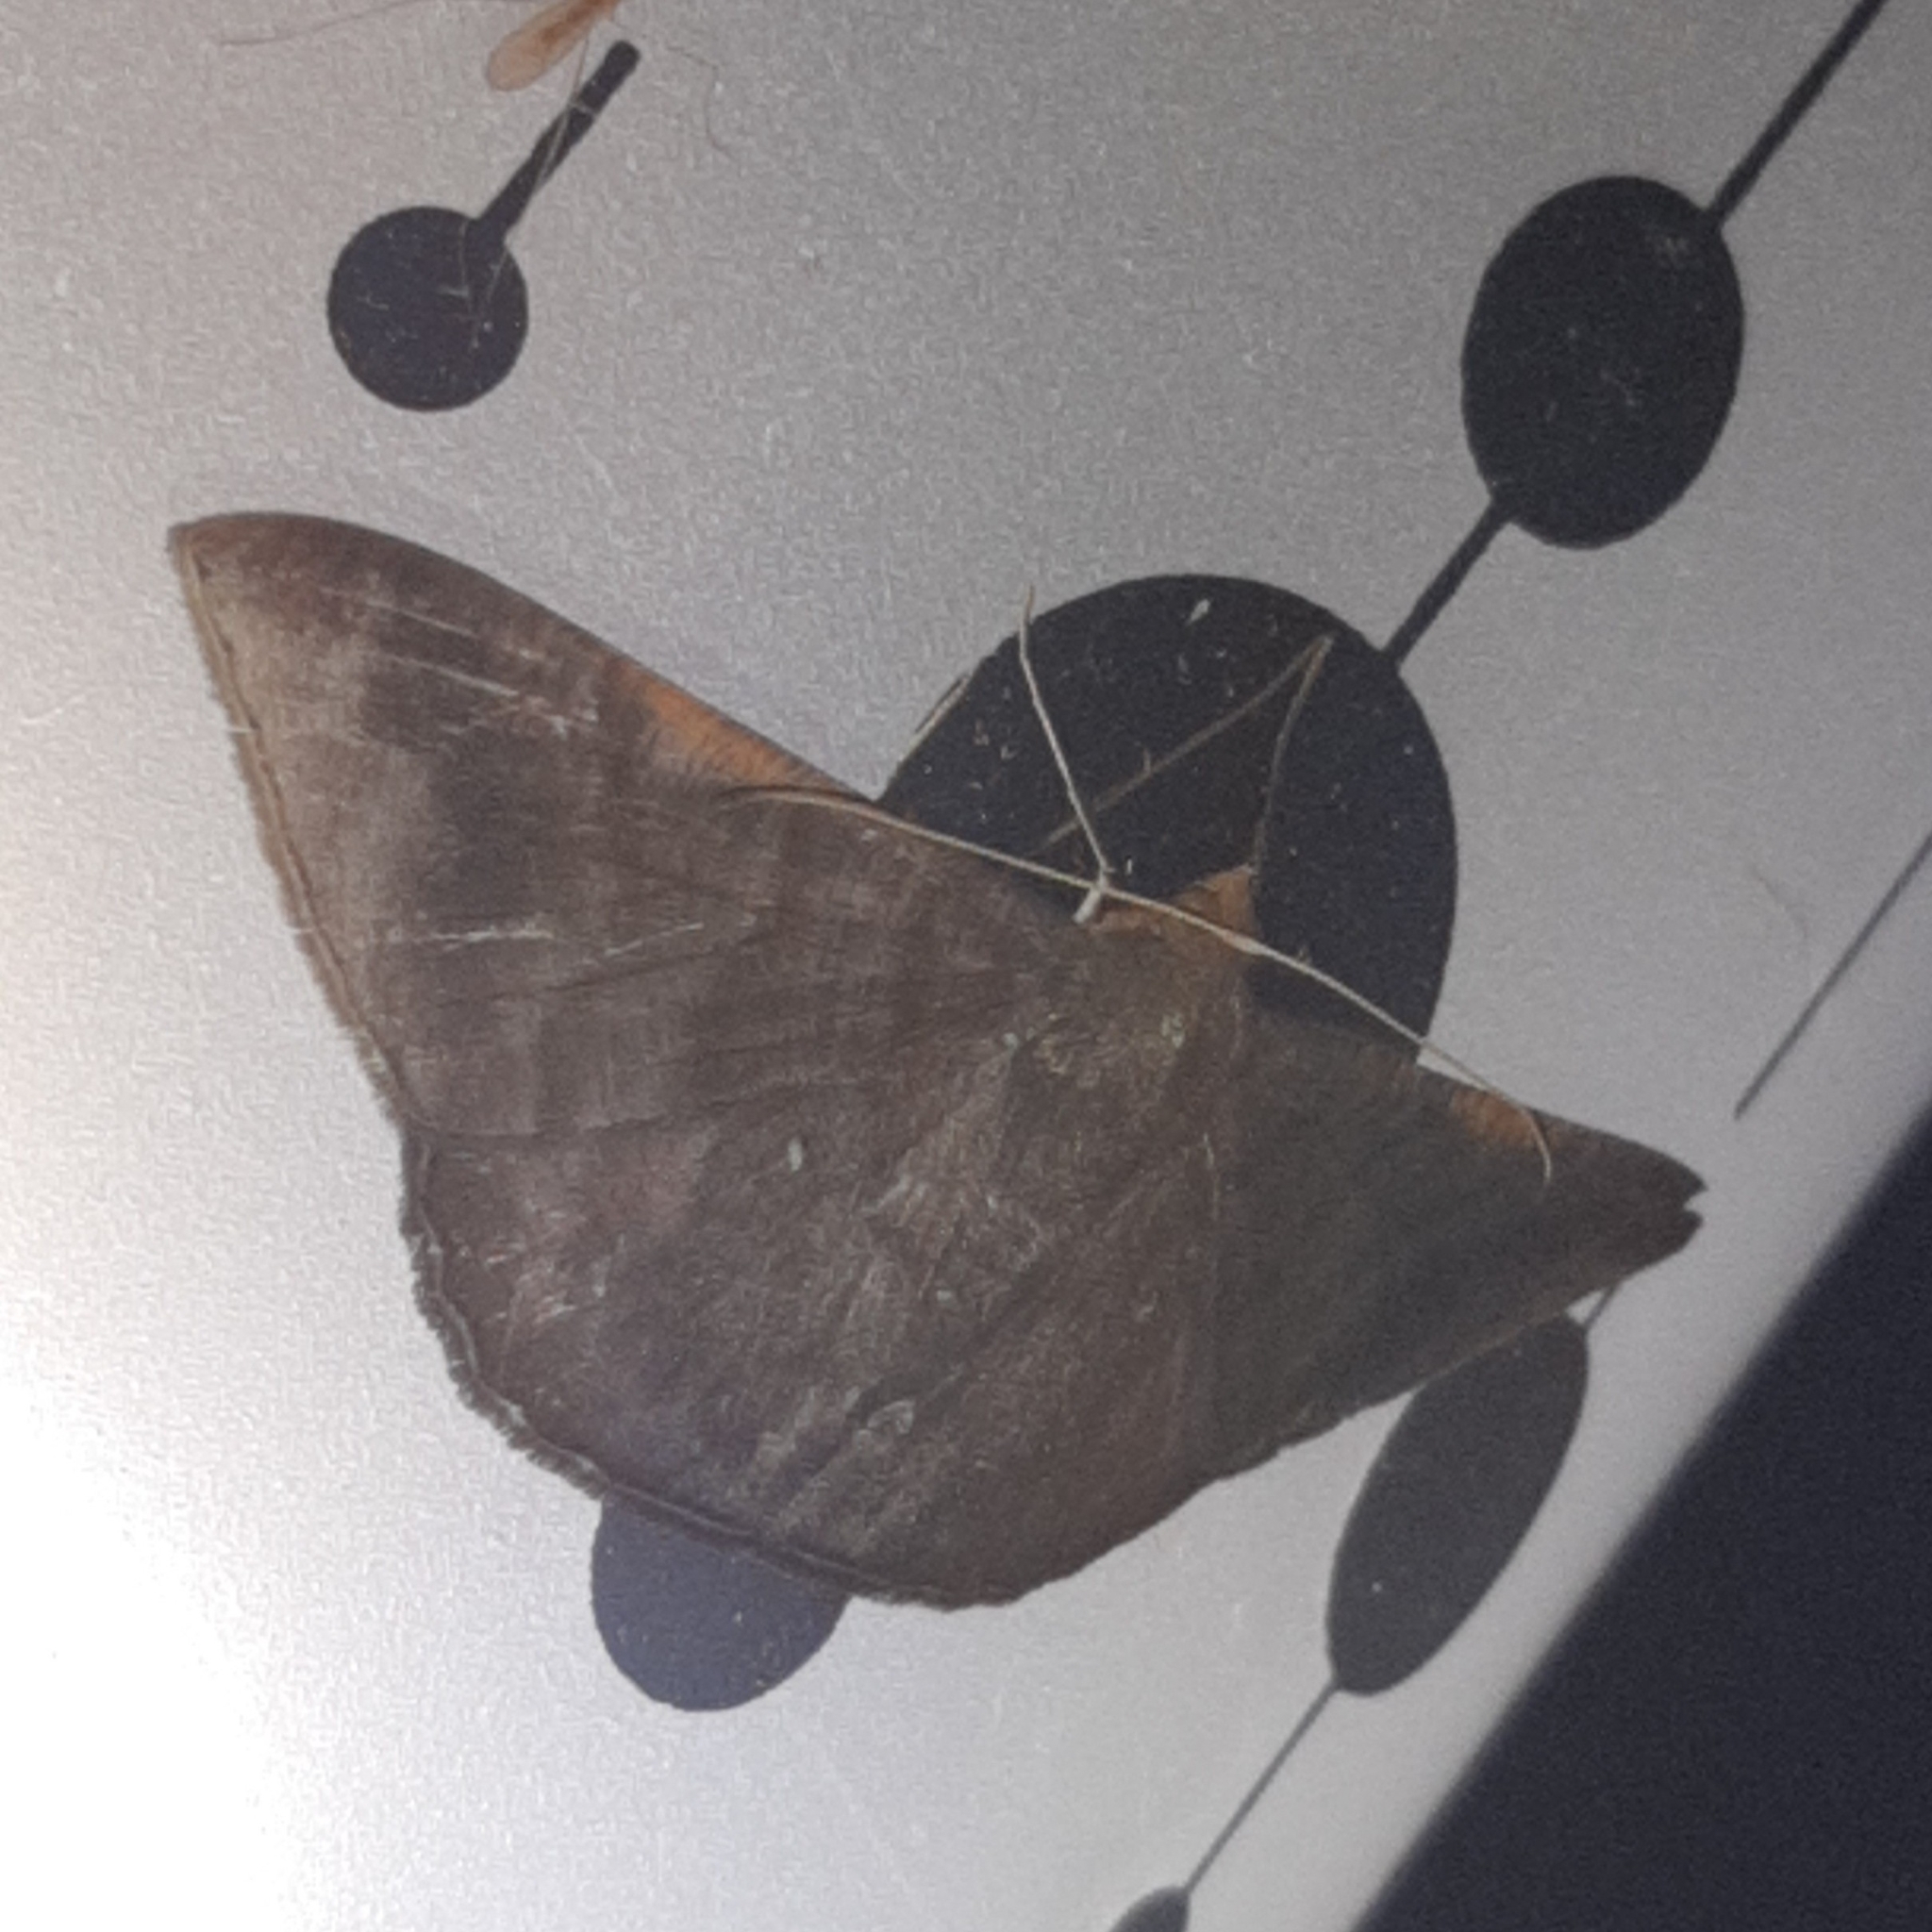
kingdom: Animalia
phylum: Arthropoda
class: Insecta
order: Lepidoptera
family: Geometridae
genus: Sphacelodes
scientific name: Sphacelodes vulneraria
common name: Looper moth
